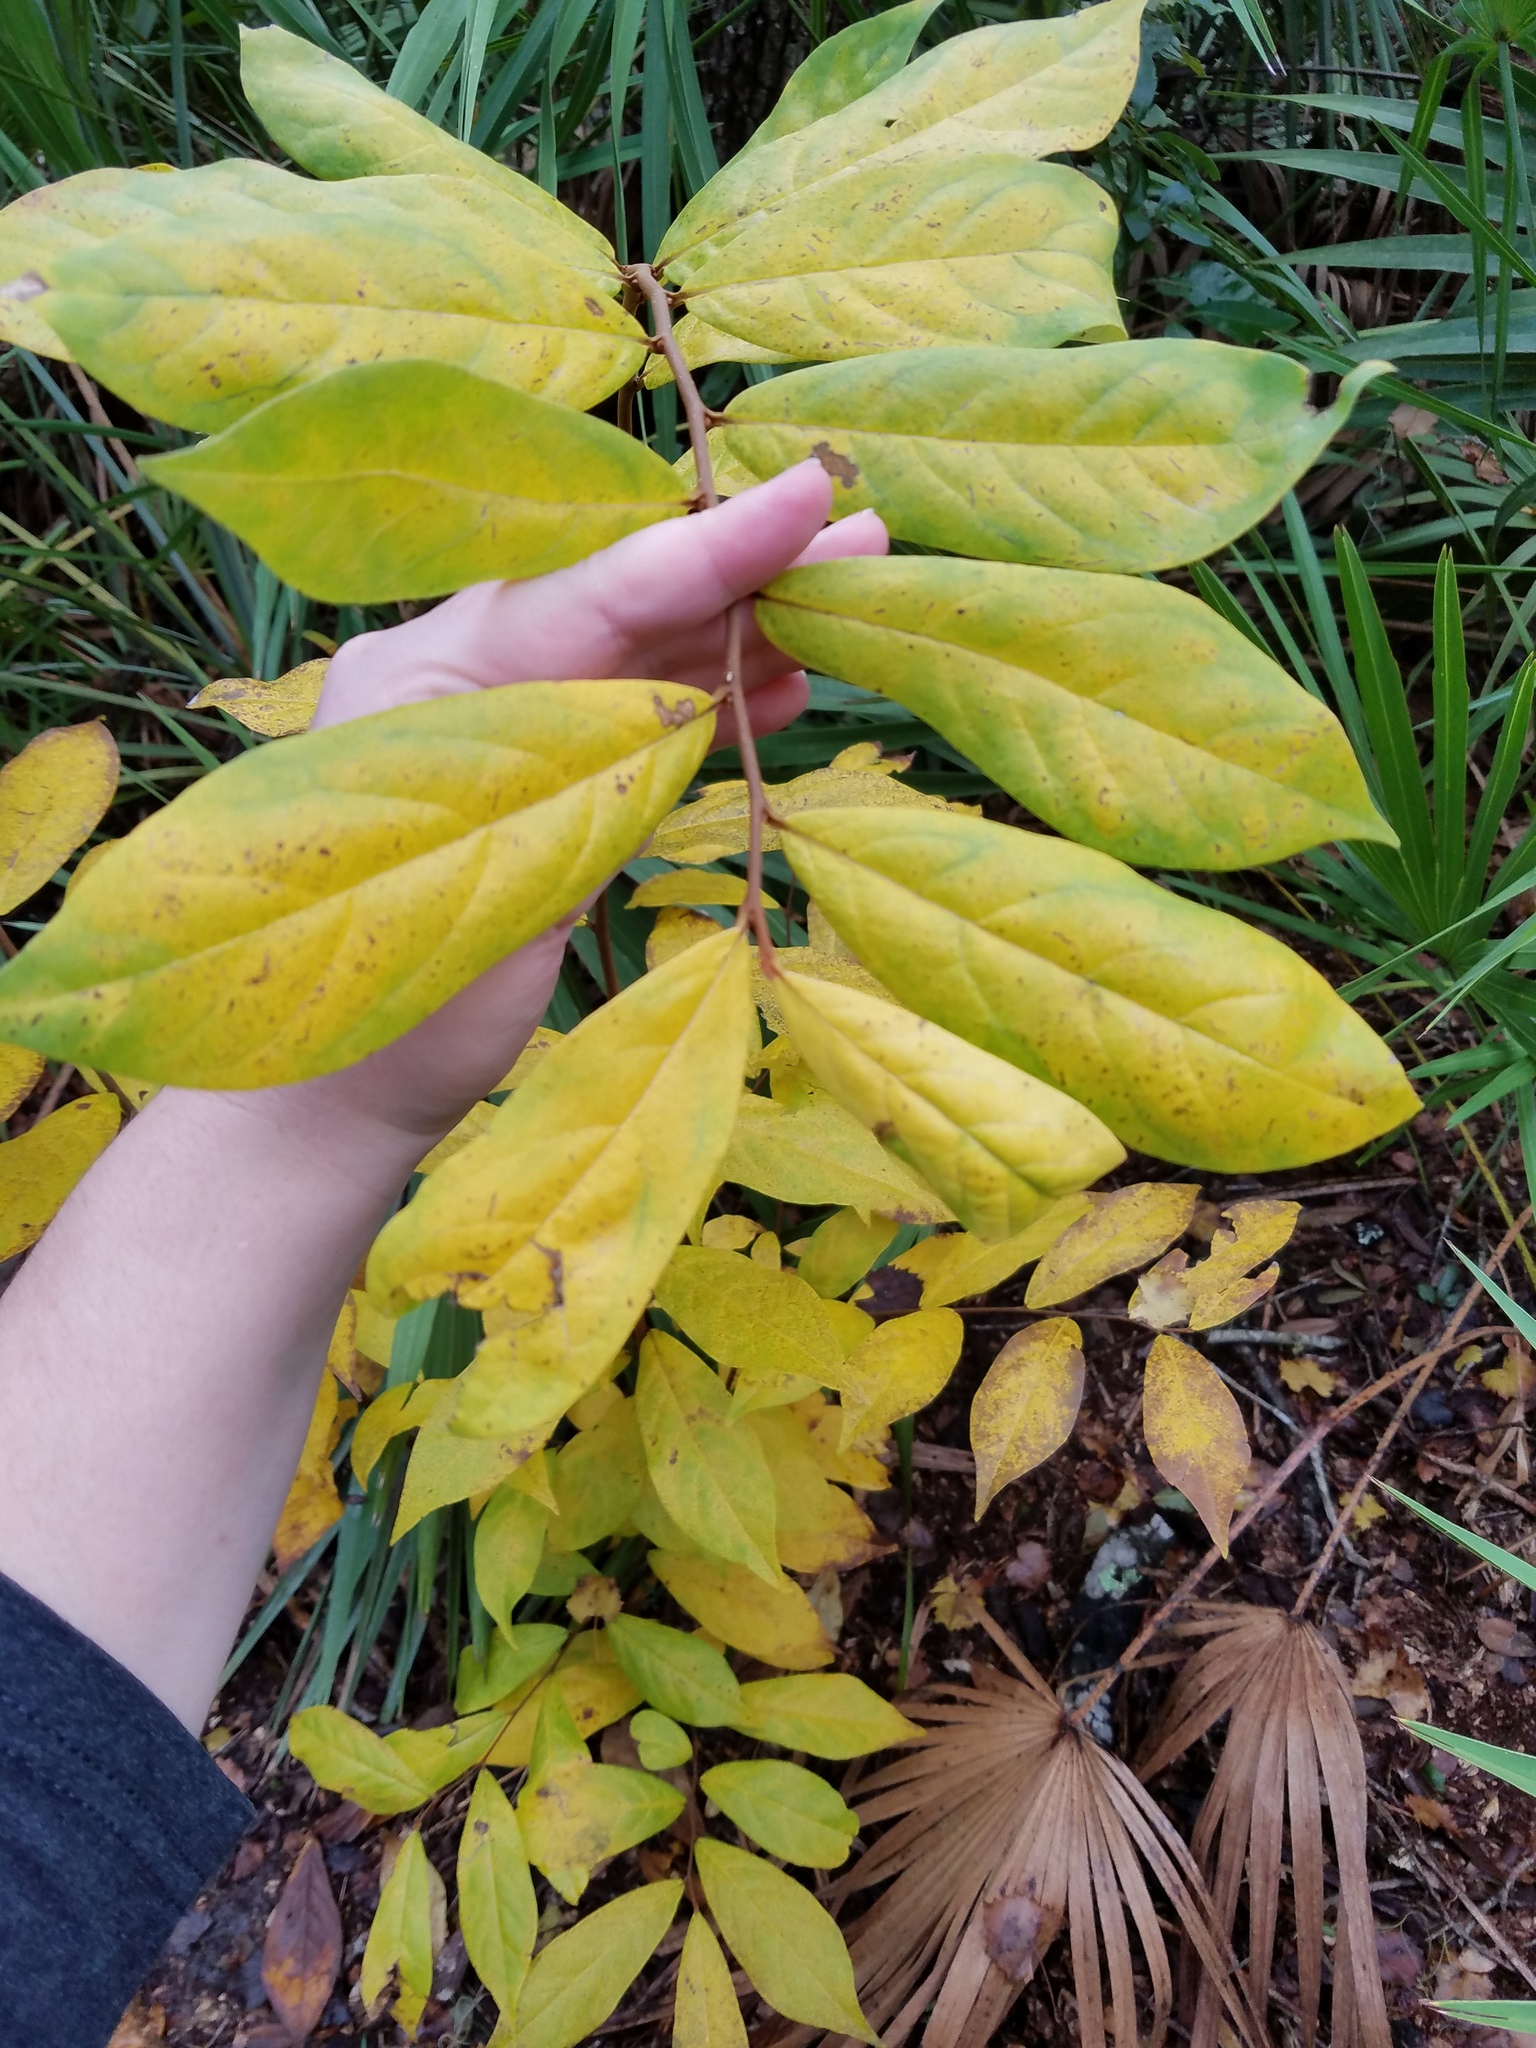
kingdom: Plantae
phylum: Tracheophyta
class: Magnoliopsida
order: Magnoliales
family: Annonaceae
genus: Asimina
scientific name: Asimina parviflora
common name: Dwarf pawpaw
